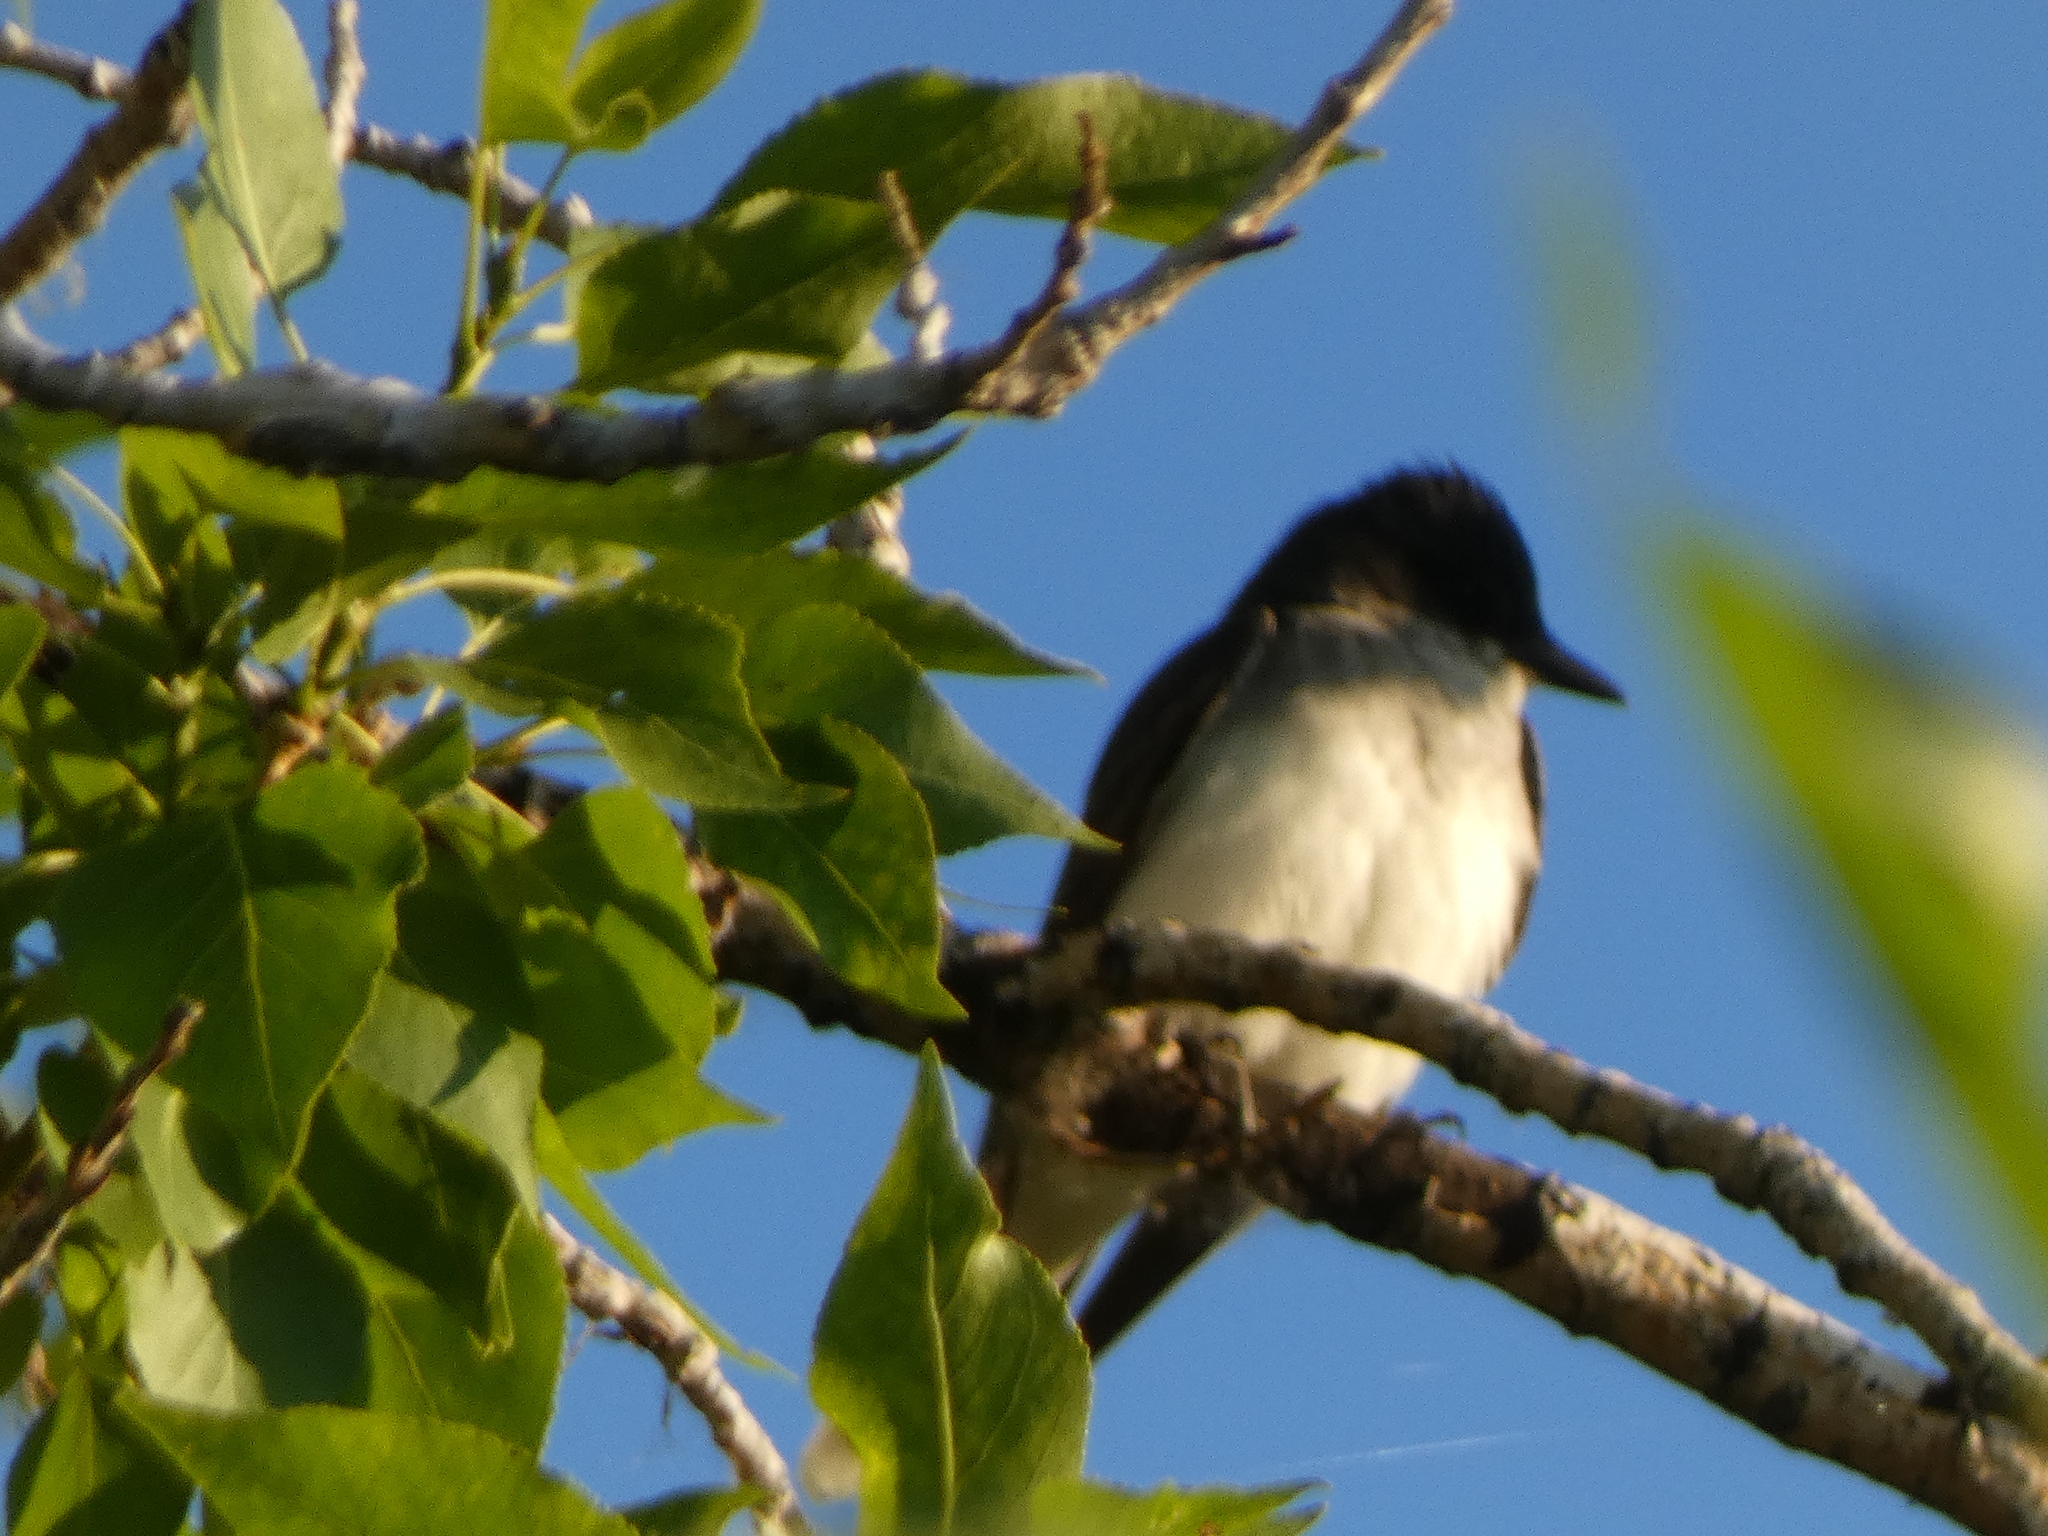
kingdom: Animalia
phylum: Chordata
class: Aves
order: Passeriformes
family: Tyrannidae
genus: Tyrannus
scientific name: Tyrannus tyrannus
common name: Eastern kingbird
